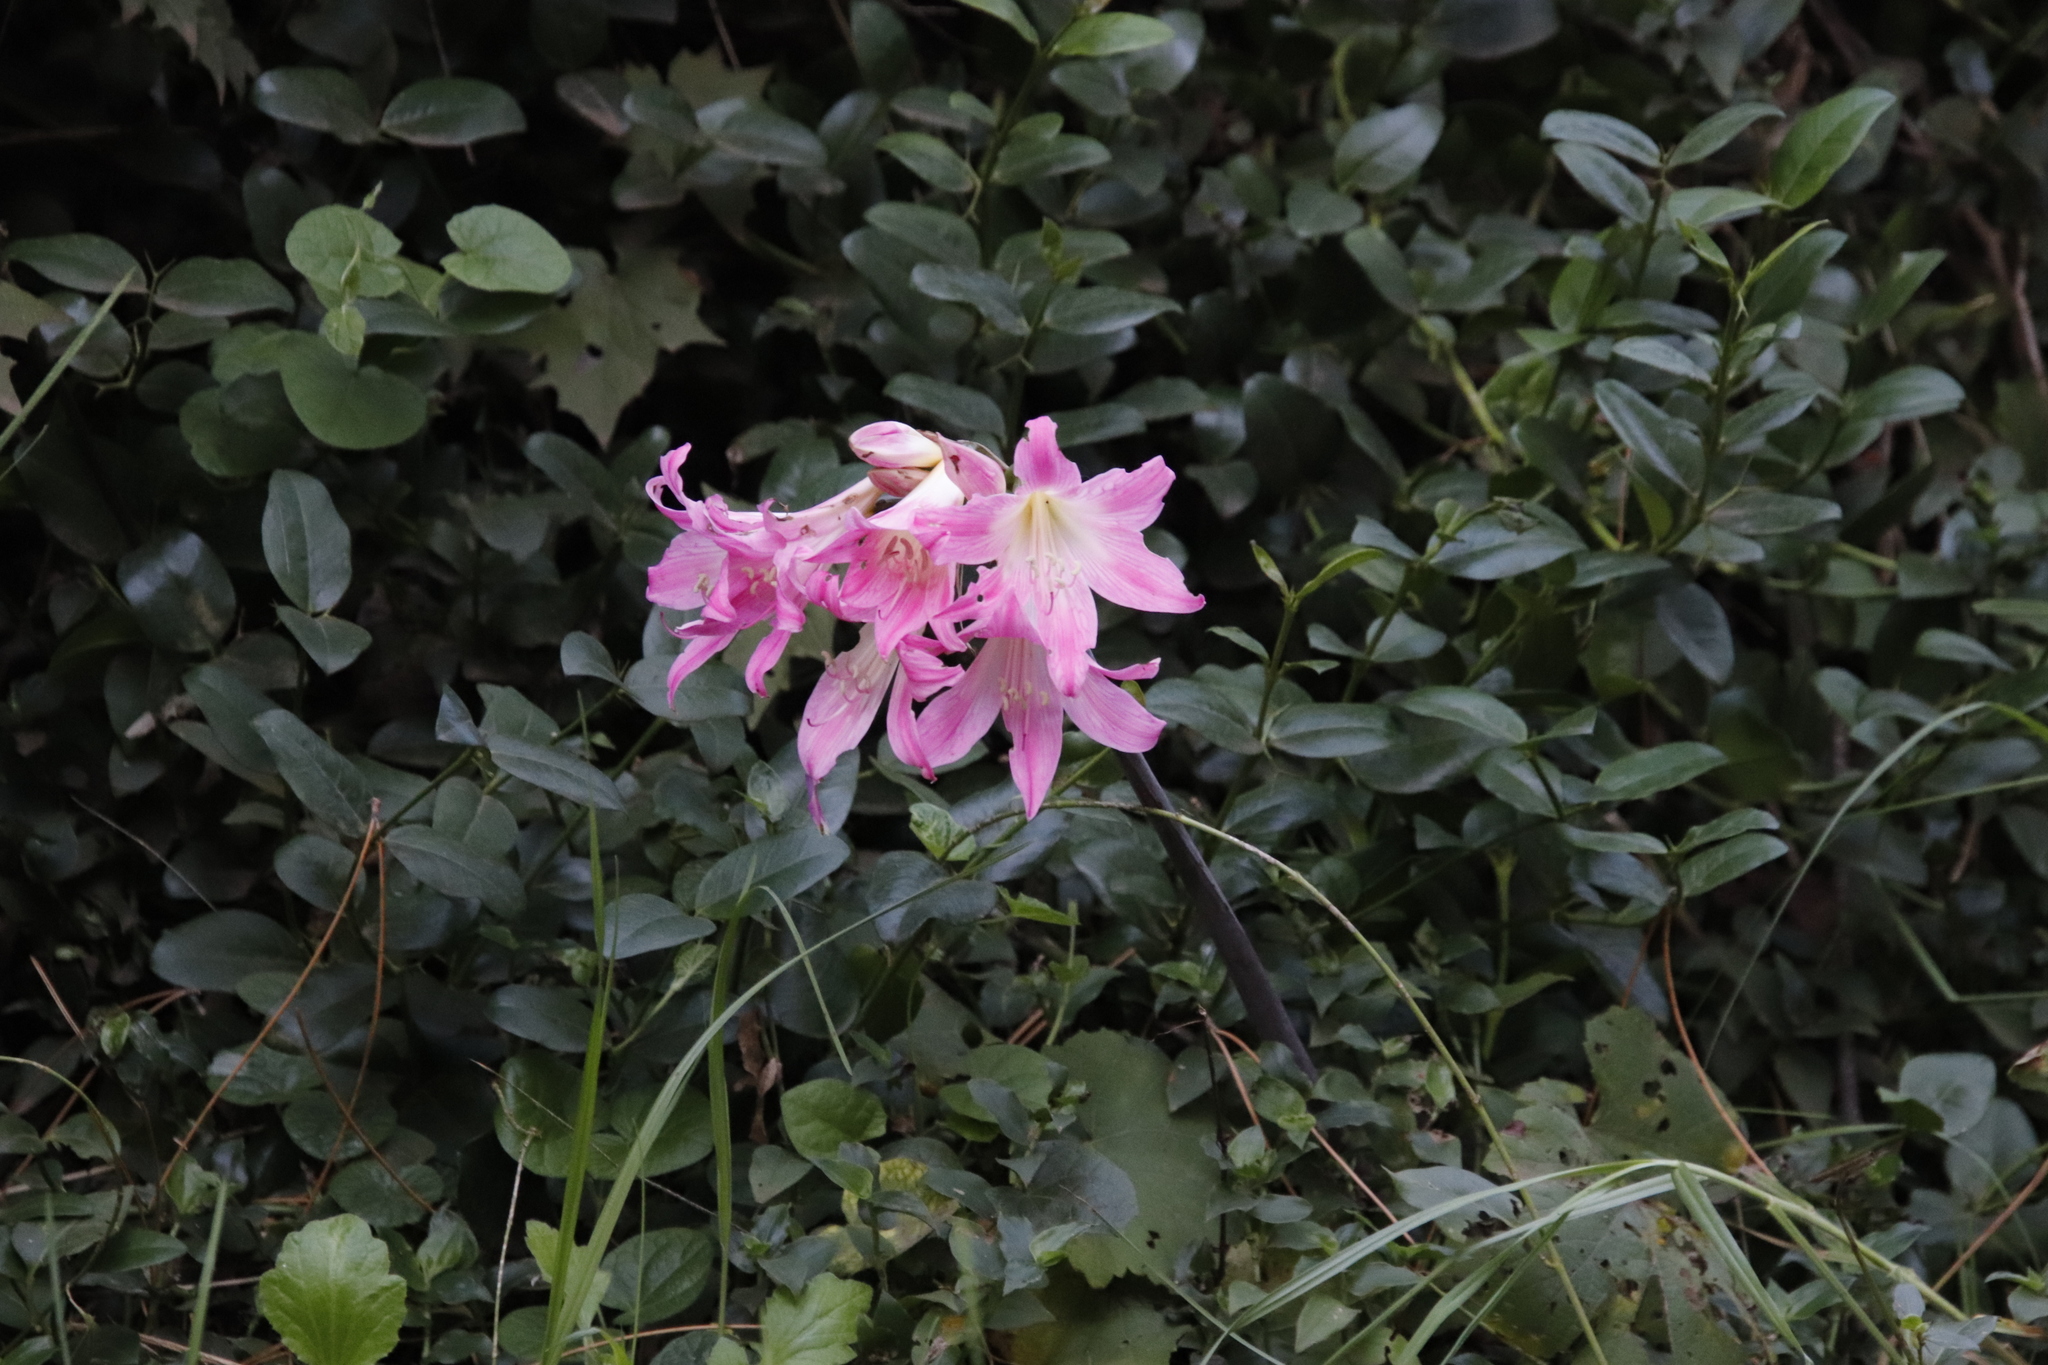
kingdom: Plantae
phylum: Tracheophyta
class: Liliopsida
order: Asparagales
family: Amaryllidaceae
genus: Amaryllis
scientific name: Amaryllis belladonna
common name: Jersey lily
